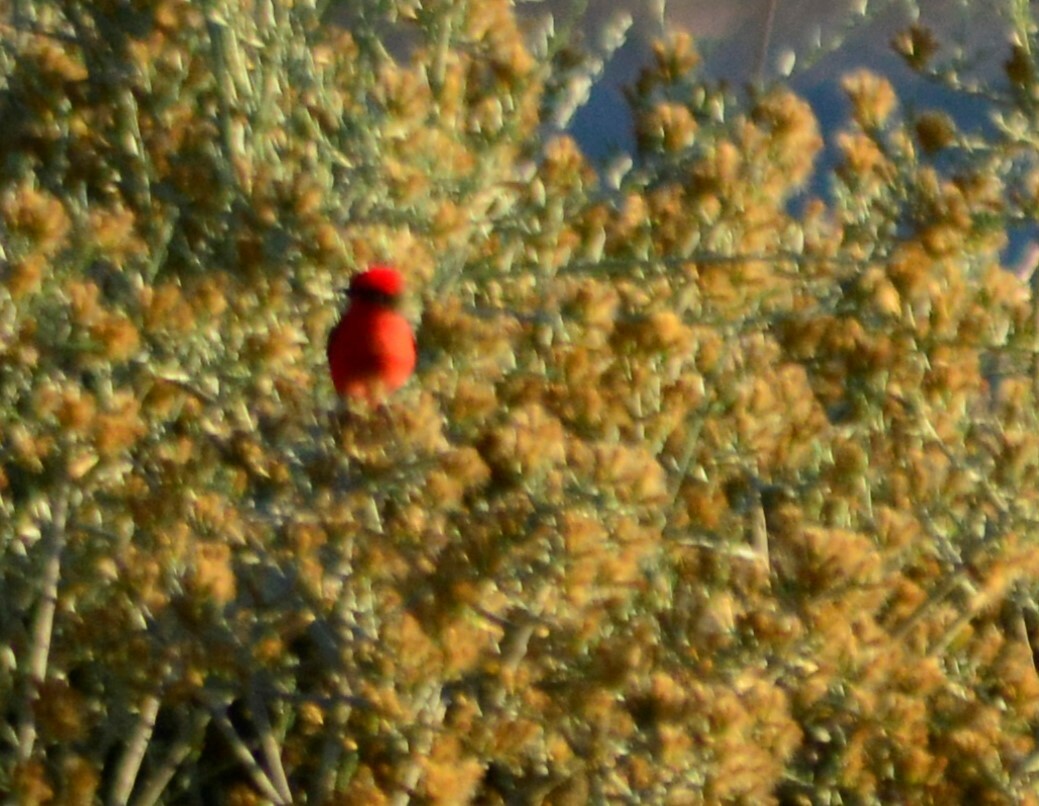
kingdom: Animalia
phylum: Chordata
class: Aves
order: Passeriformes
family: Tyrannidae
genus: Pyrocephalus
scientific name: Pyrocephalus rubinus
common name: Vermilion flycatcher
